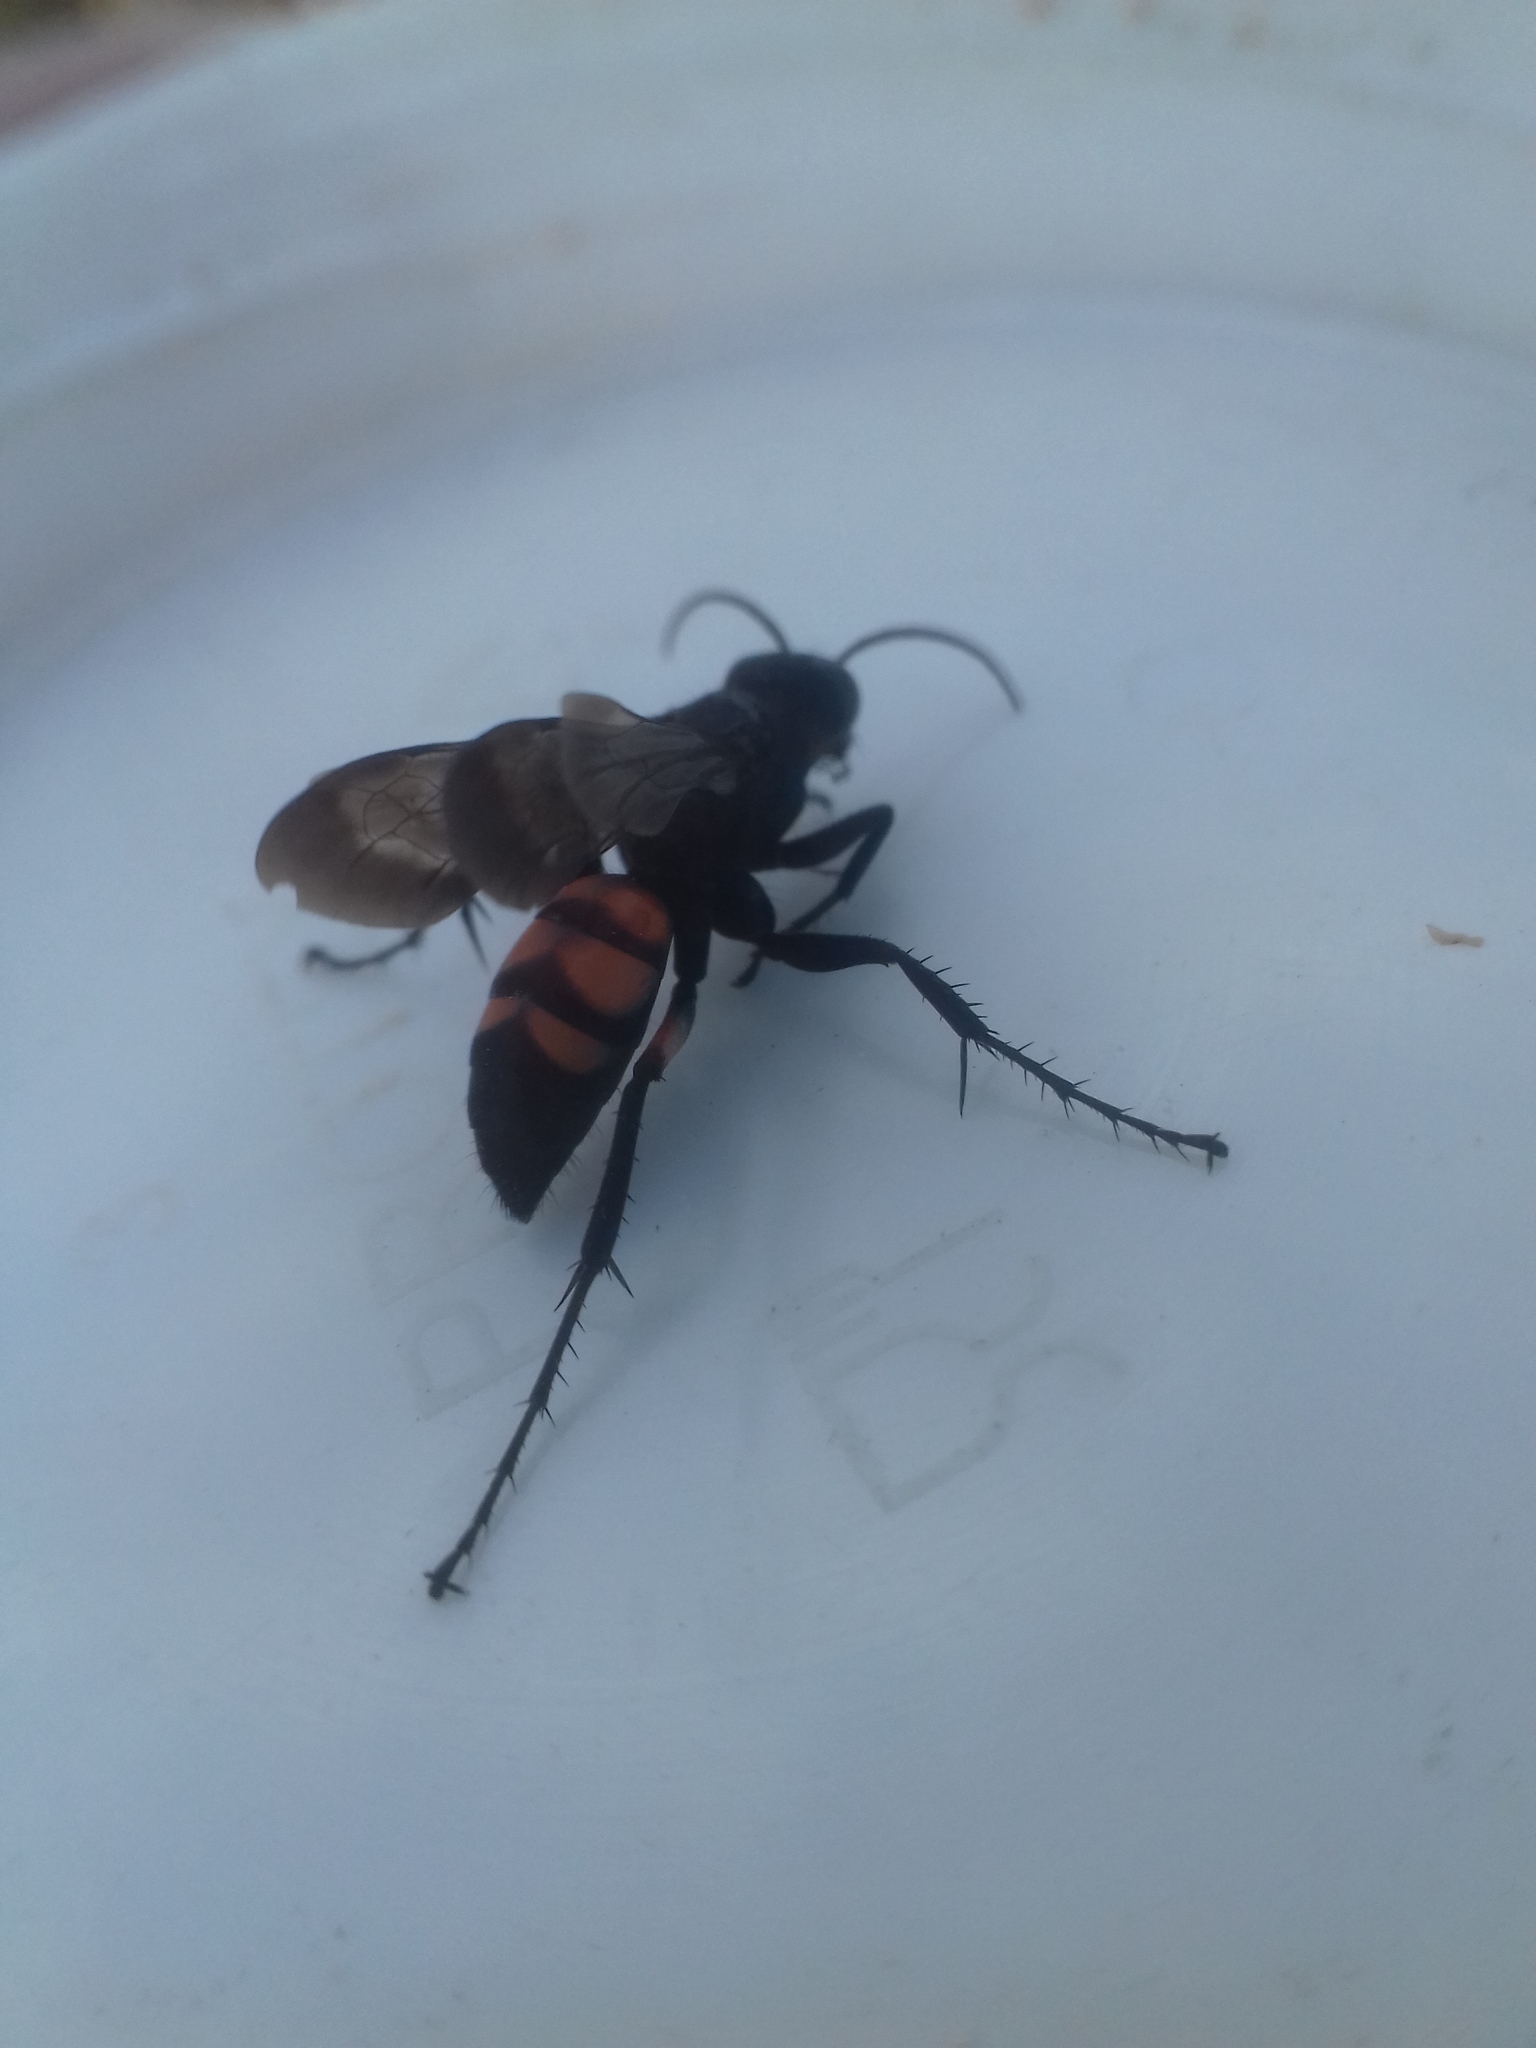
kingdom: Animalia
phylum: Arthropoda
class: Insecta
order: Hymenoptera
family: Pompilidae
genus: Anoplius
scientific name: Anoplius viaticus
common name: Black banded spider wasp
